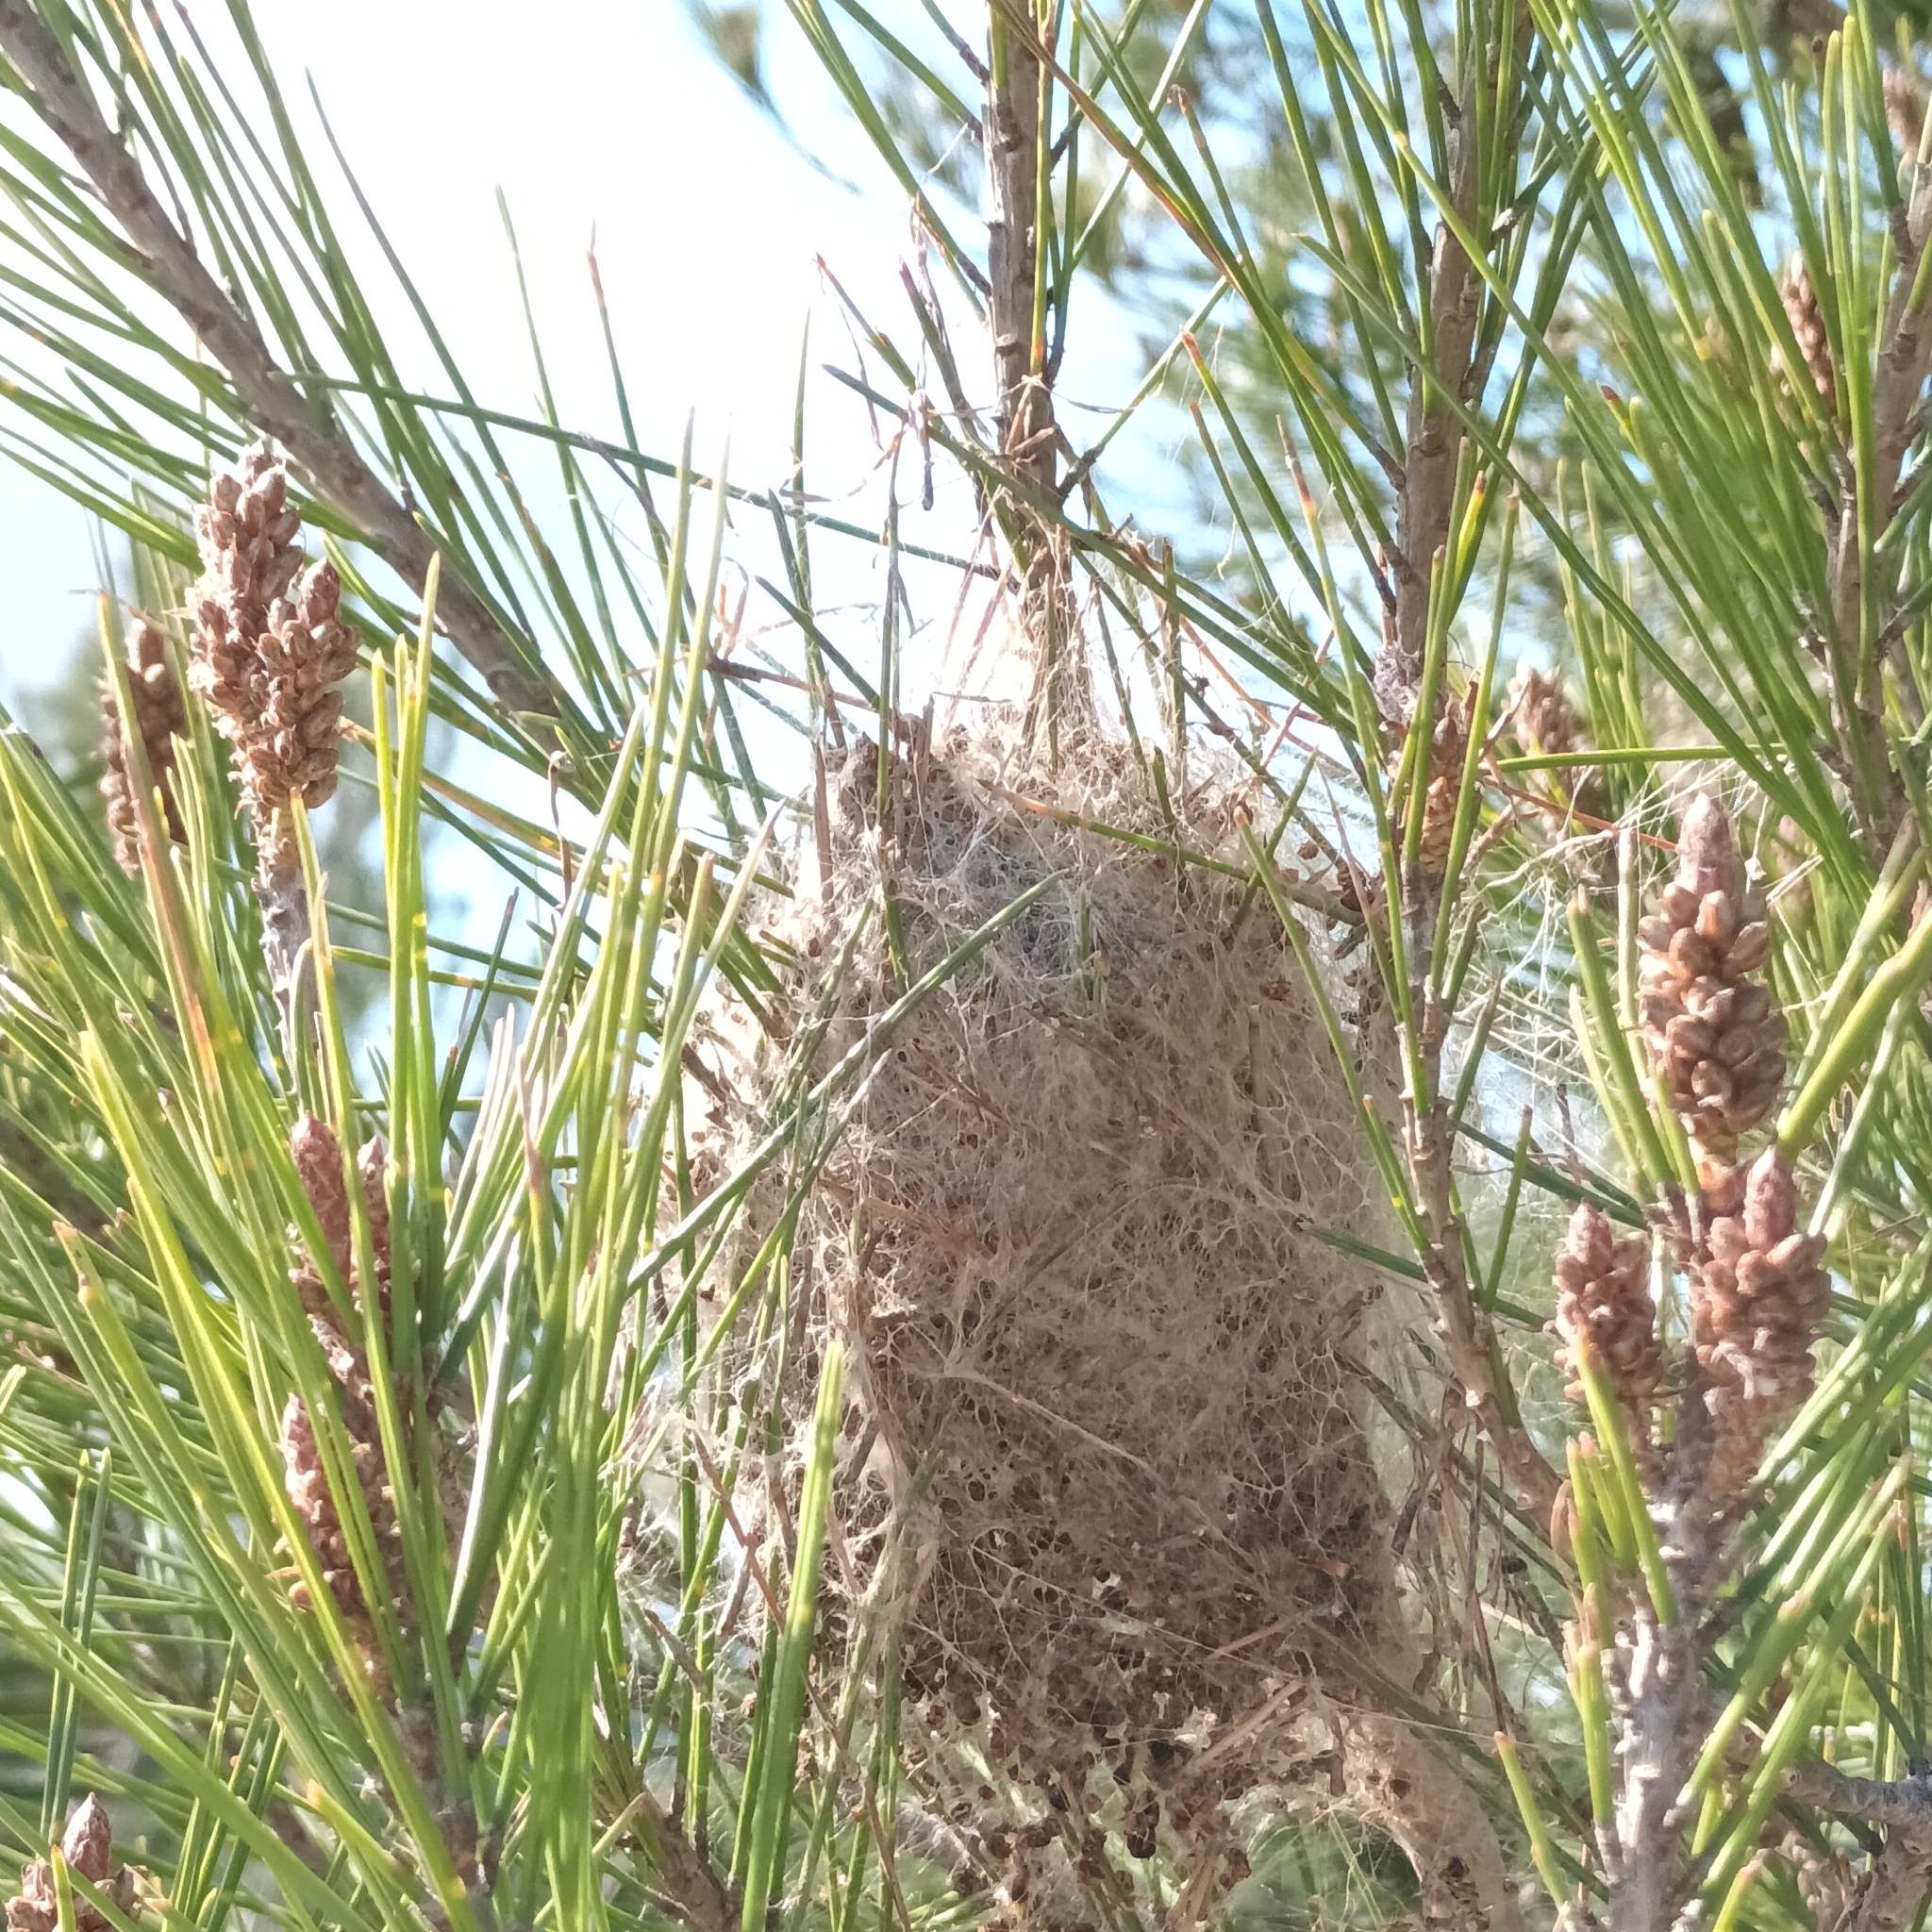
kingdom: Animalia
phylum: Arthropoda
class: Insecta
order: Lepidoptera
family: Notodontidae
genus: Thaumetopoea
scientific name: Thaumetopoea pityocampa
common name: Pine processionary
